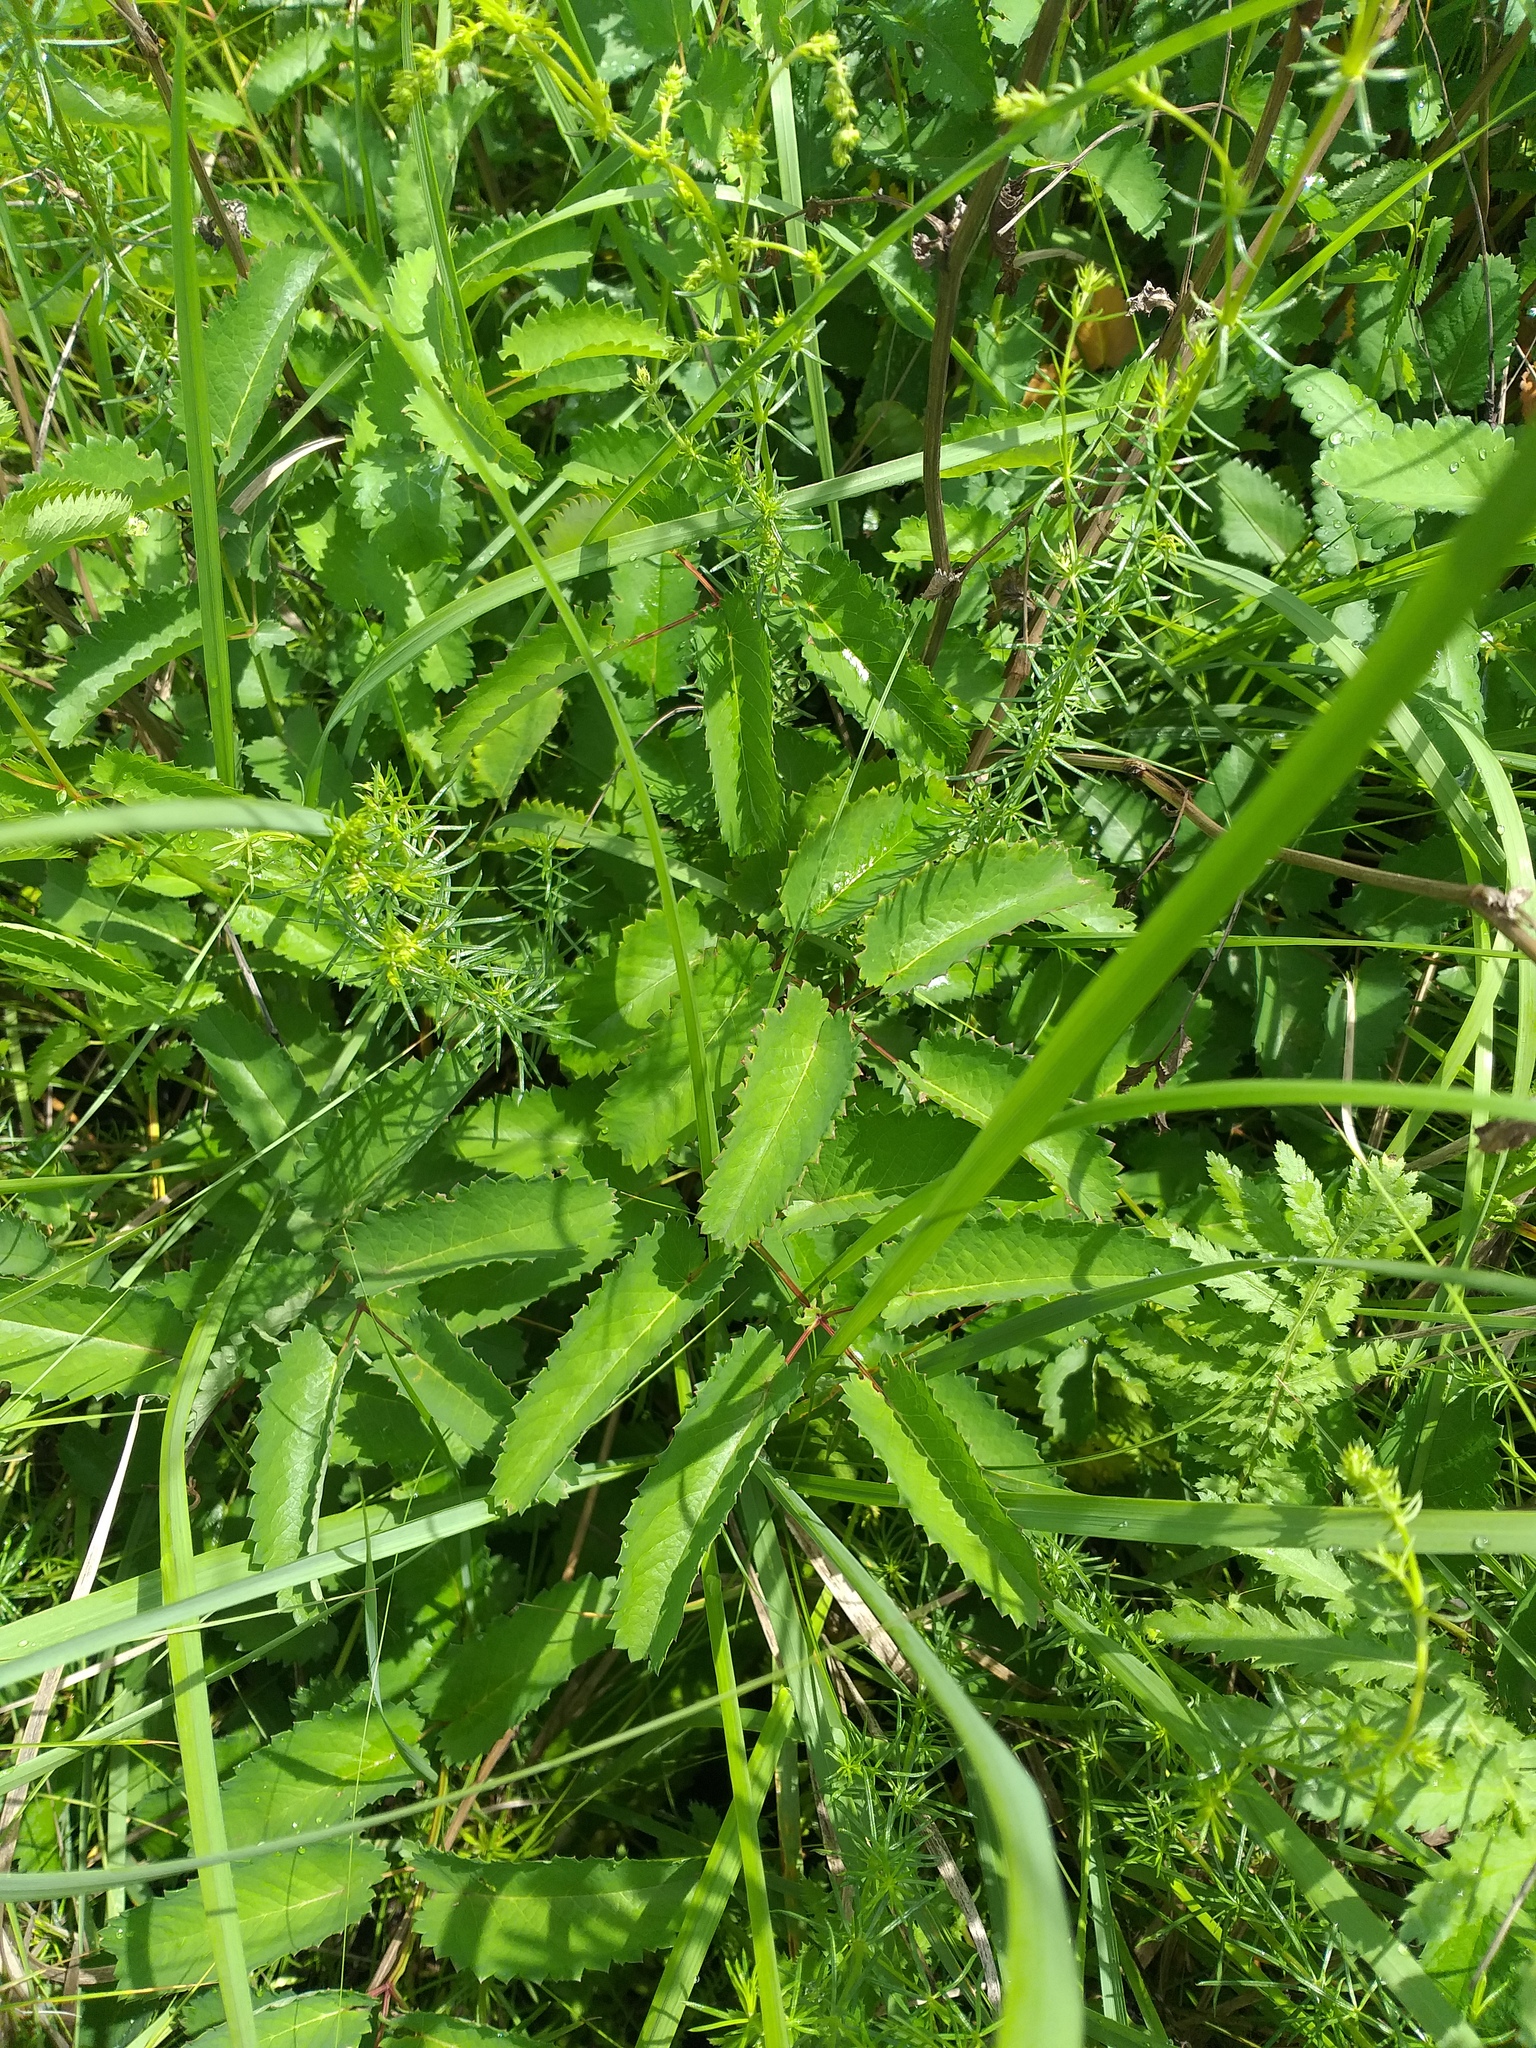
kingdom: Plantae
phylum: Tracheophyta
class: Magnoliopsida
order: Rosales
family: Rosaceae
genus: Sanguisorba
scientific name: Sanguisorba officinalis
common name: Great burnet
